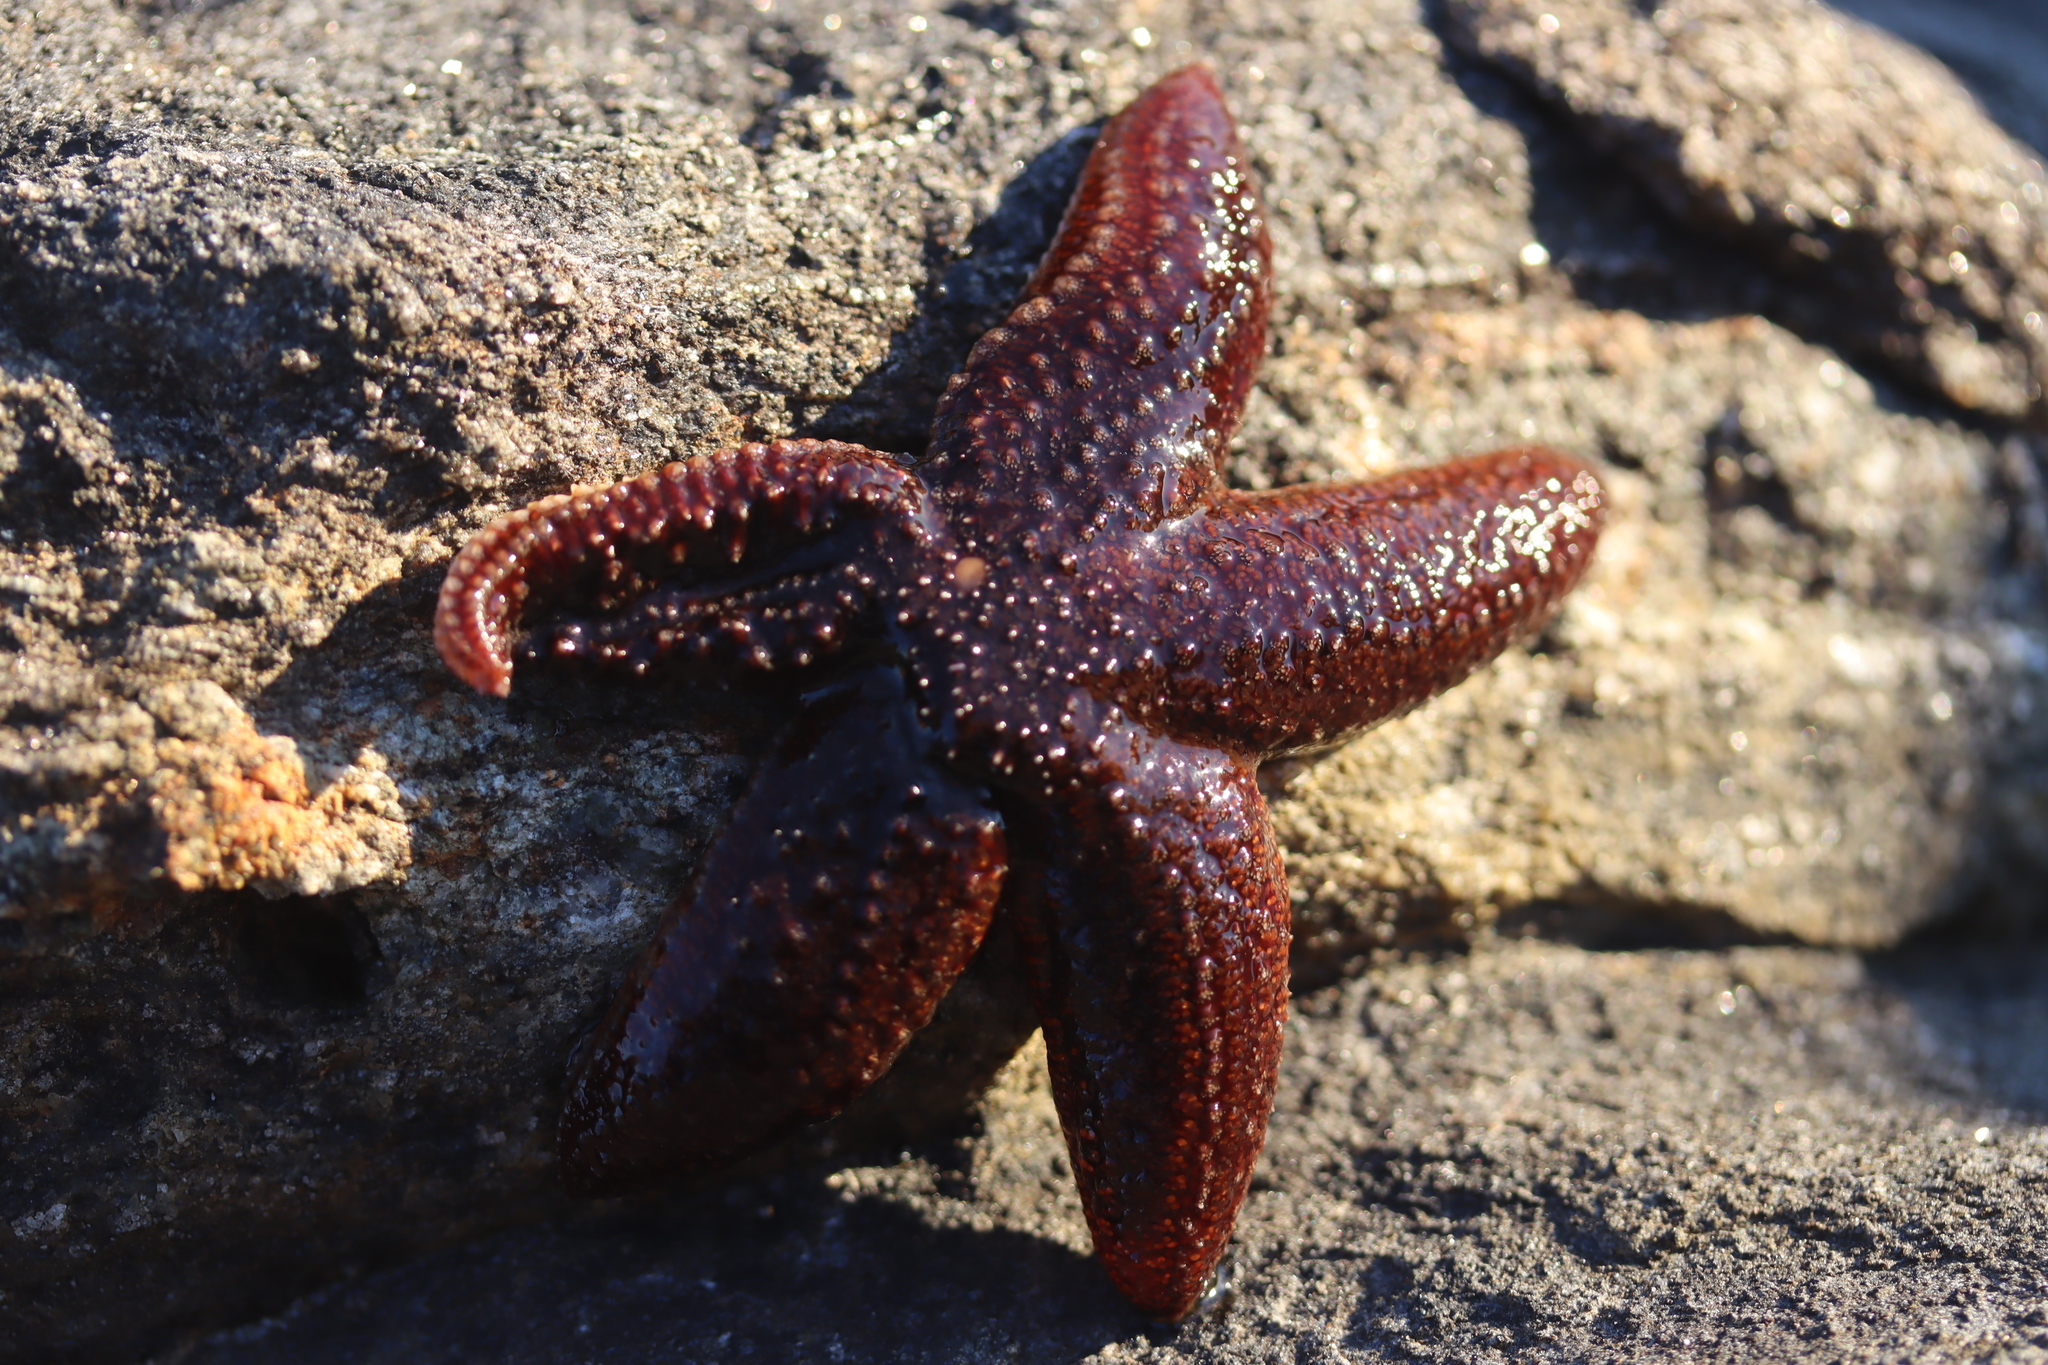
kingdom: Animalia
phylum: Echinodermata
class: Asteroidea
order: Forcipulatida
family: Asteriidae
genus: Asterias
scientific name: Asterias rubens
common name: Common starfish
